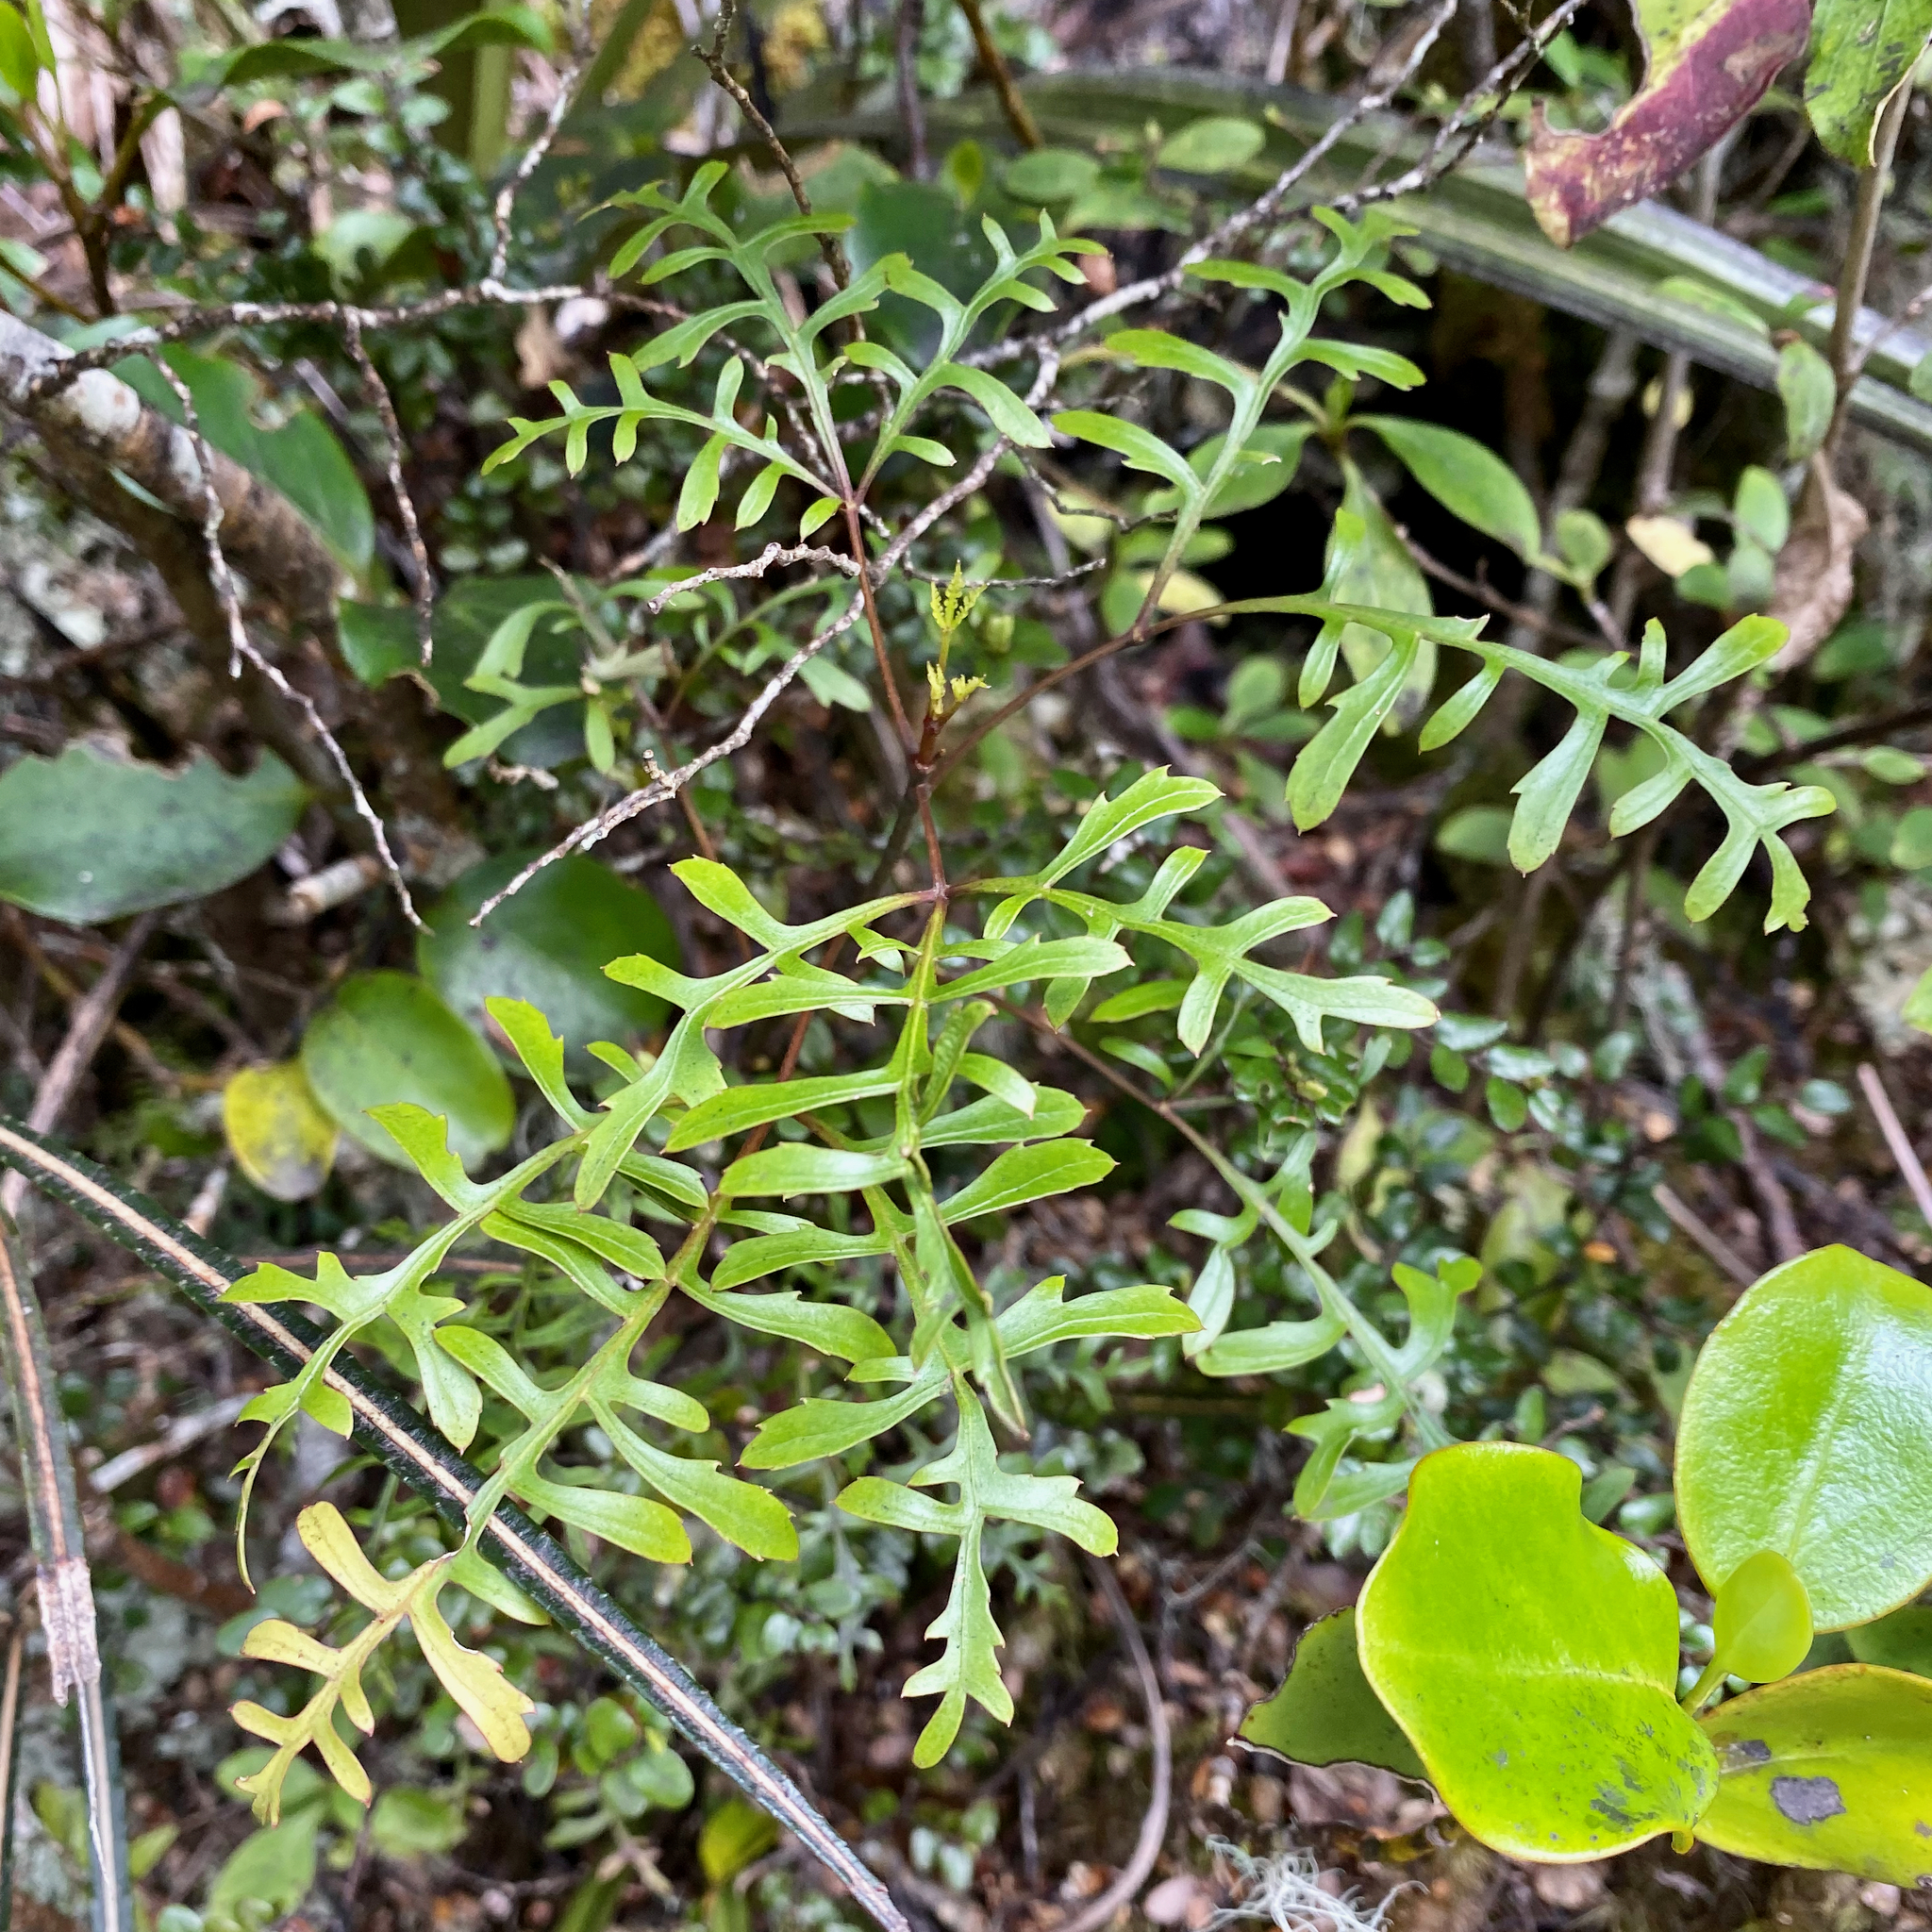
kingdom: Plantae
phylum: Tracheophyta
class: Magnoliopsida
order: Apiales
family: Araliaceae
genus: Raukaua
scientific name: Raukaua simplex
